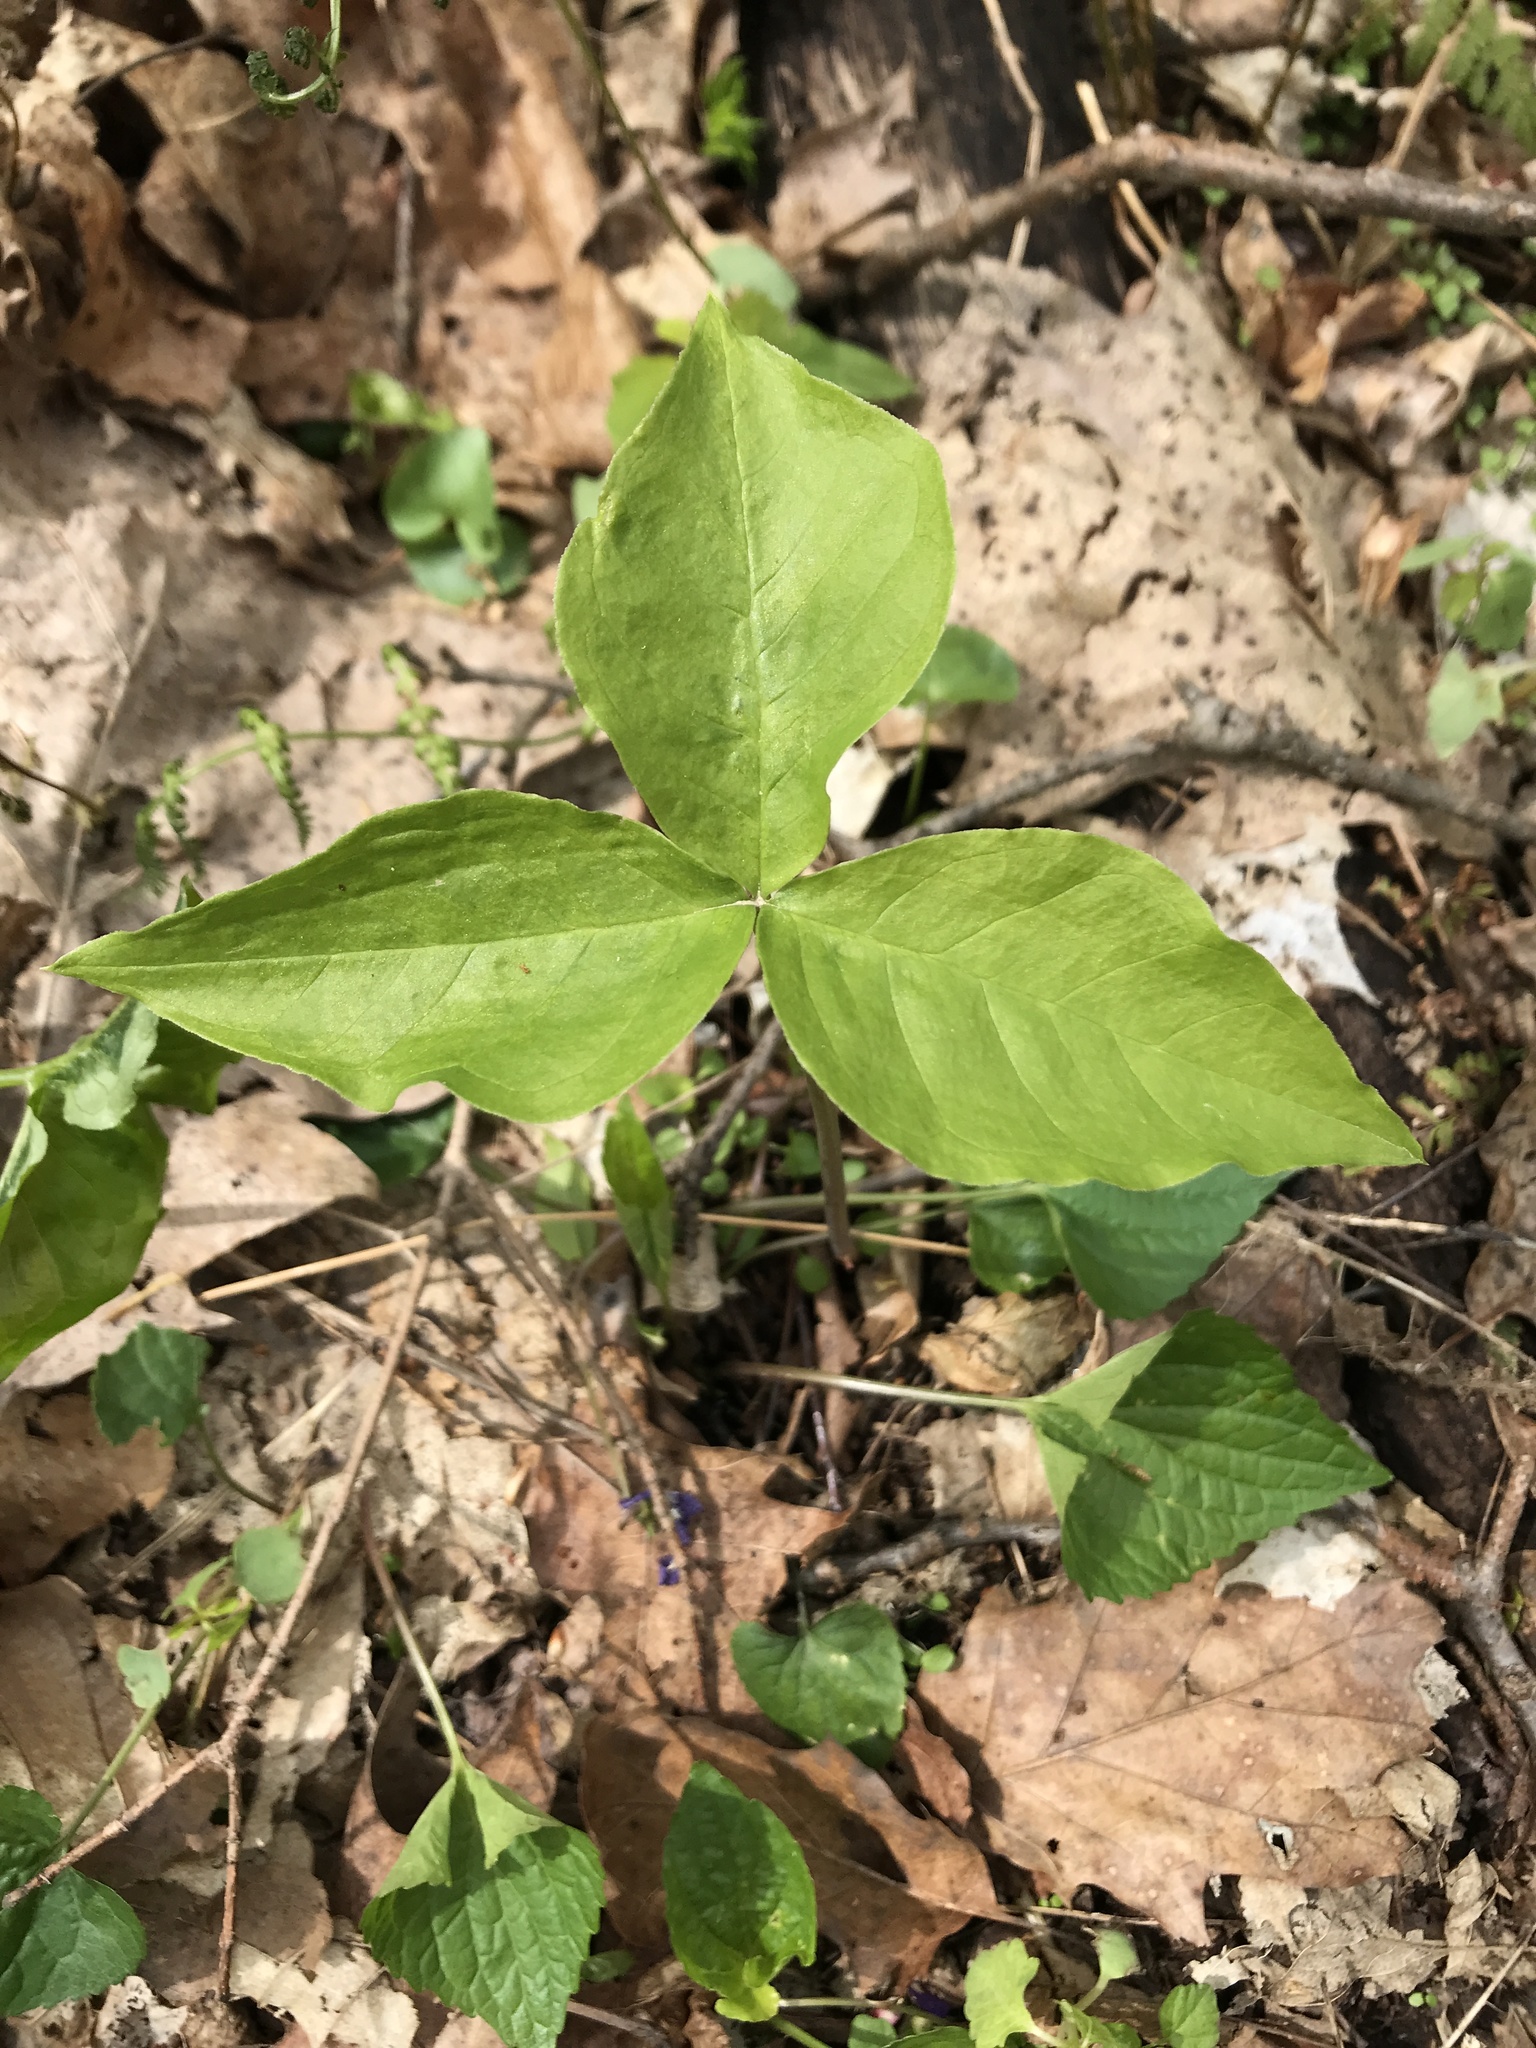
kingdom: Plantae
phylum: Tracheophyta
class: Liliopsida
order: Alismatales
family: Araceae
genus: Arisaema
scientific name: Arisaema triphyllum
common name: Jack-in-the-pulpit
